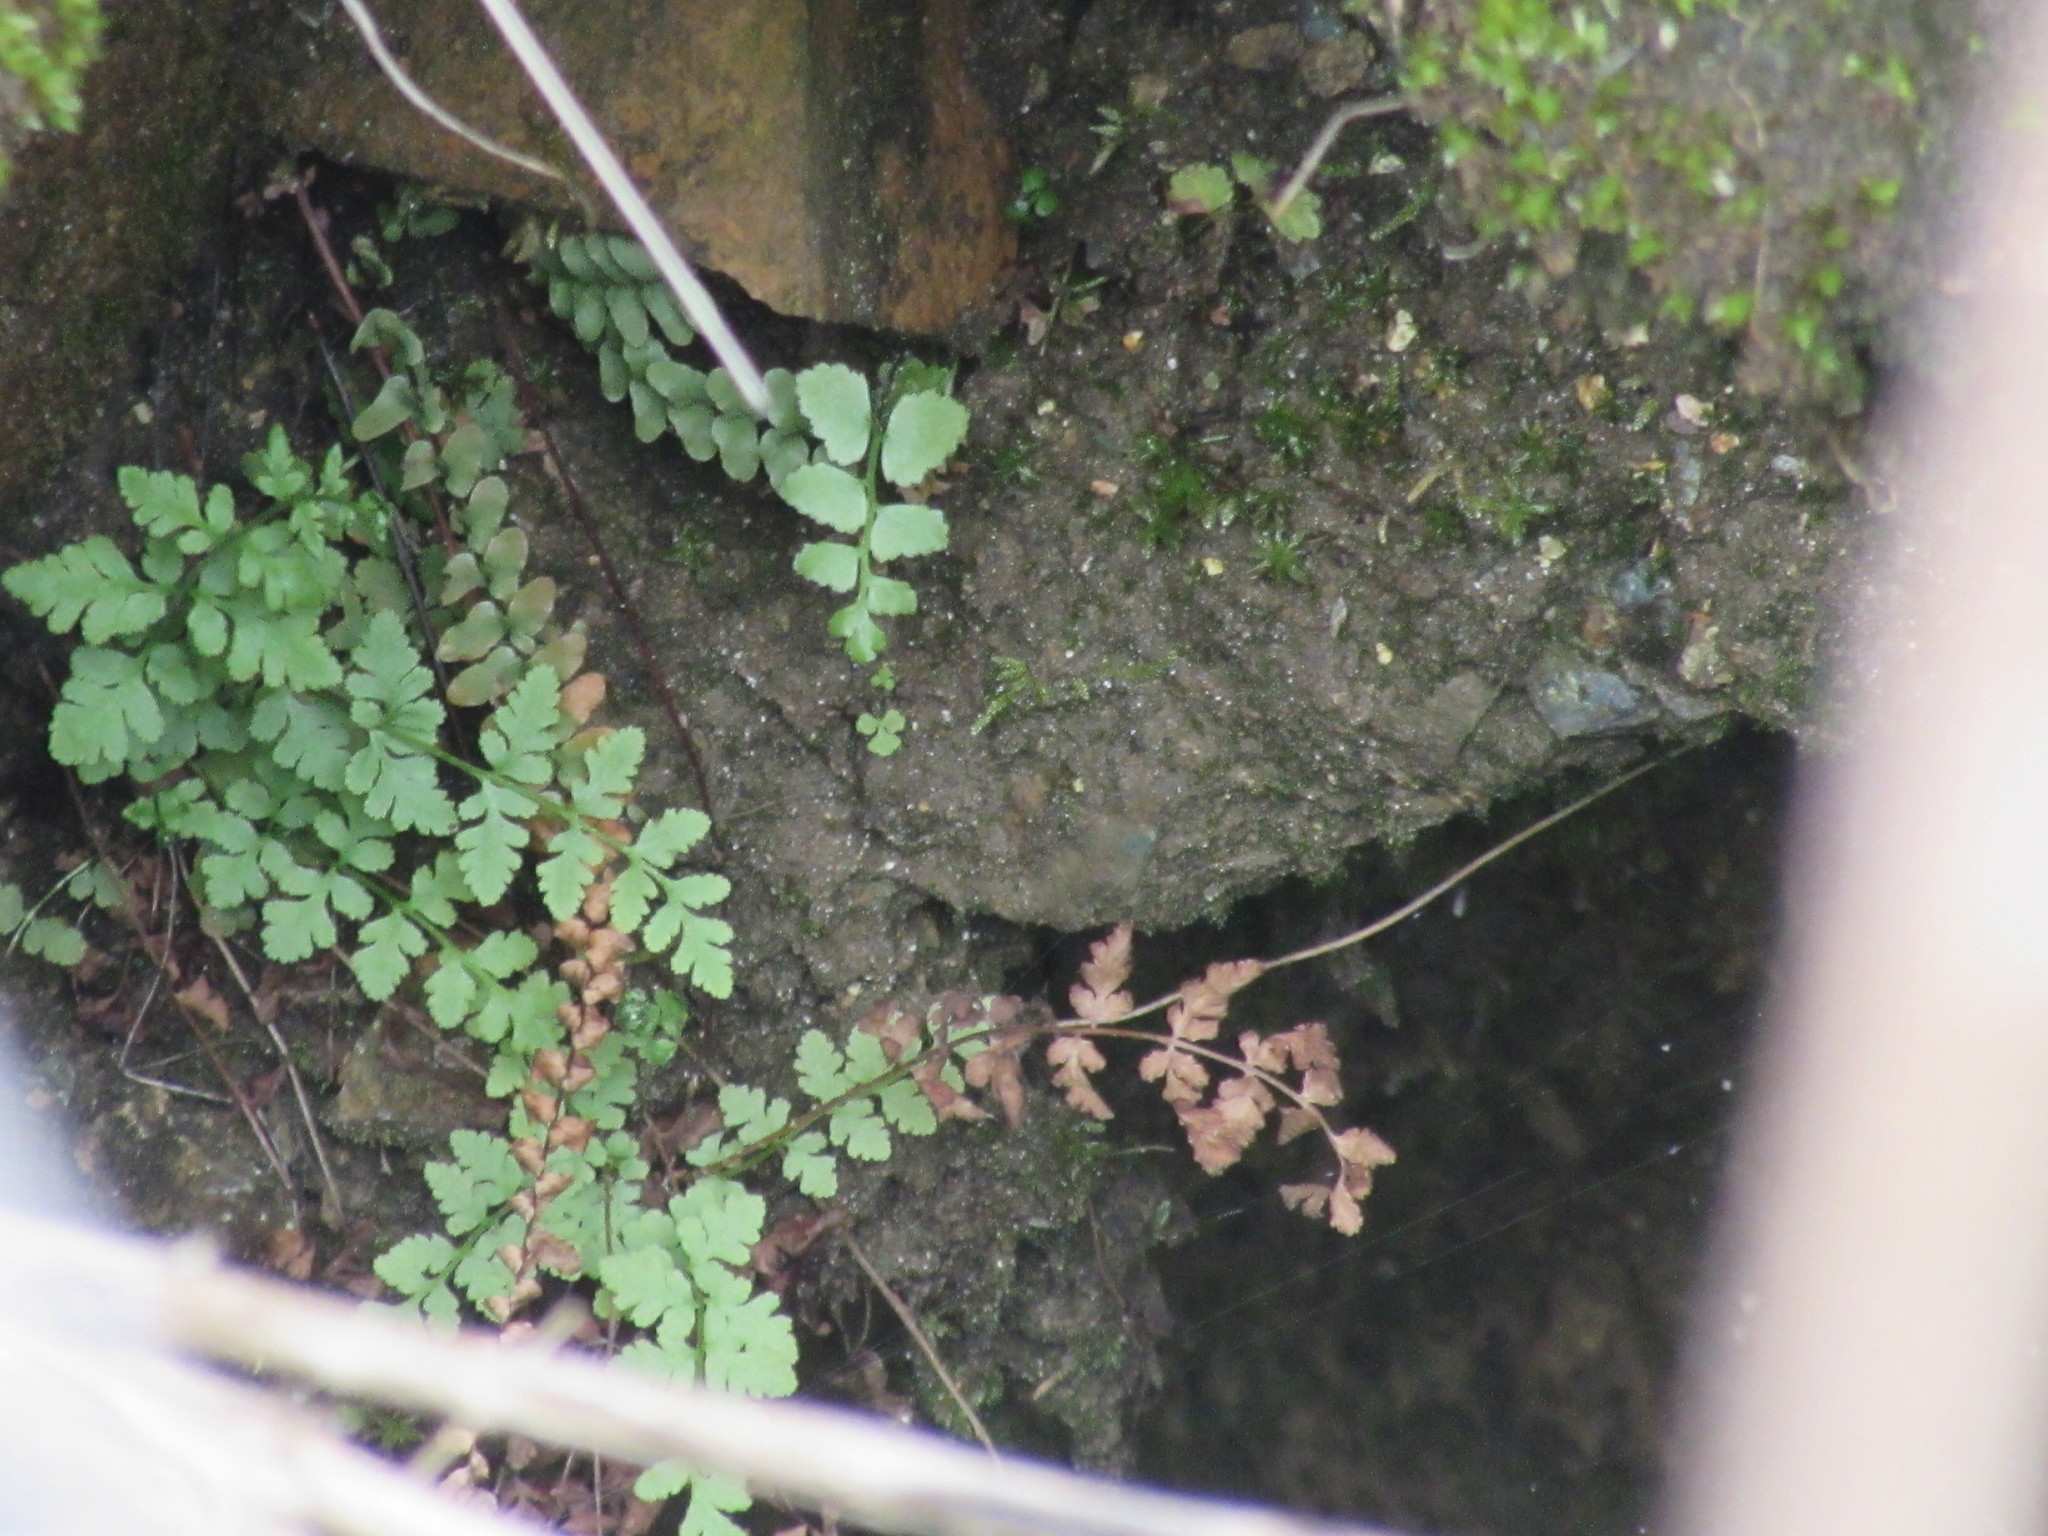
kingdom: Plantae
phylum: Tracheophyta
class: Polypodiopsida
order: Polypodiales
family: Dryopteridaceae
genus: Polystichum
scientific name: Polystichum acrostichoides
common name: Christmas fern
